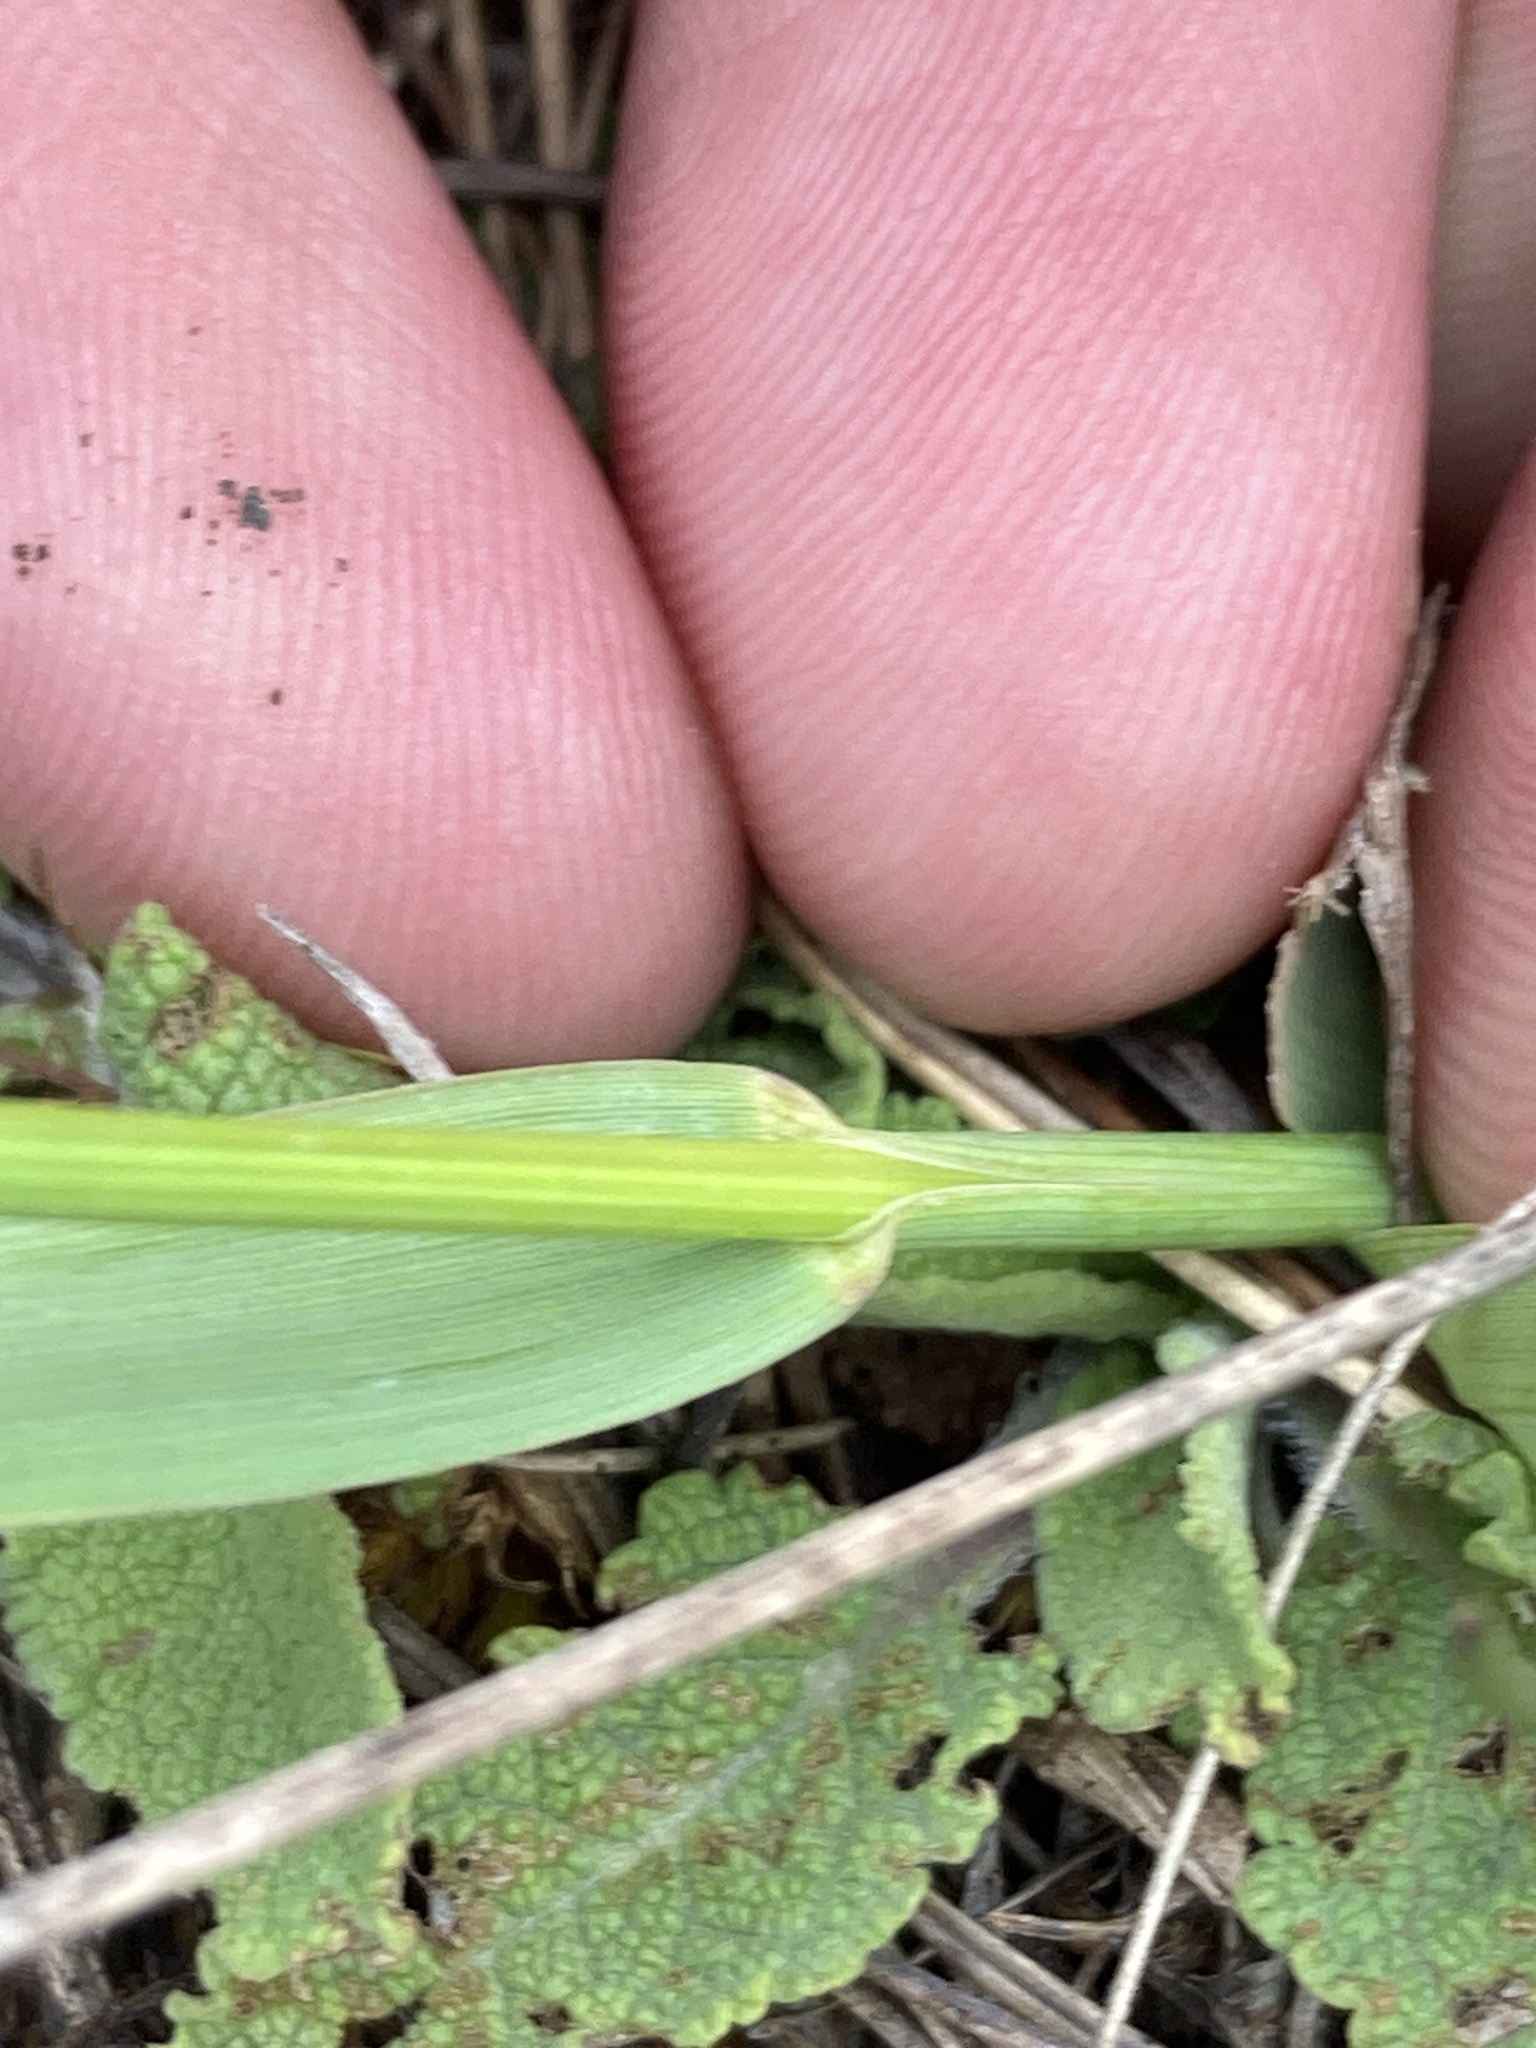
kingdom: Plantae
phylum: Tracheophyta
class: Liliopsida
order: Poales
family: Poaceae
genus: Anthoxanthum
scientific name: Anthoxanthum repens
